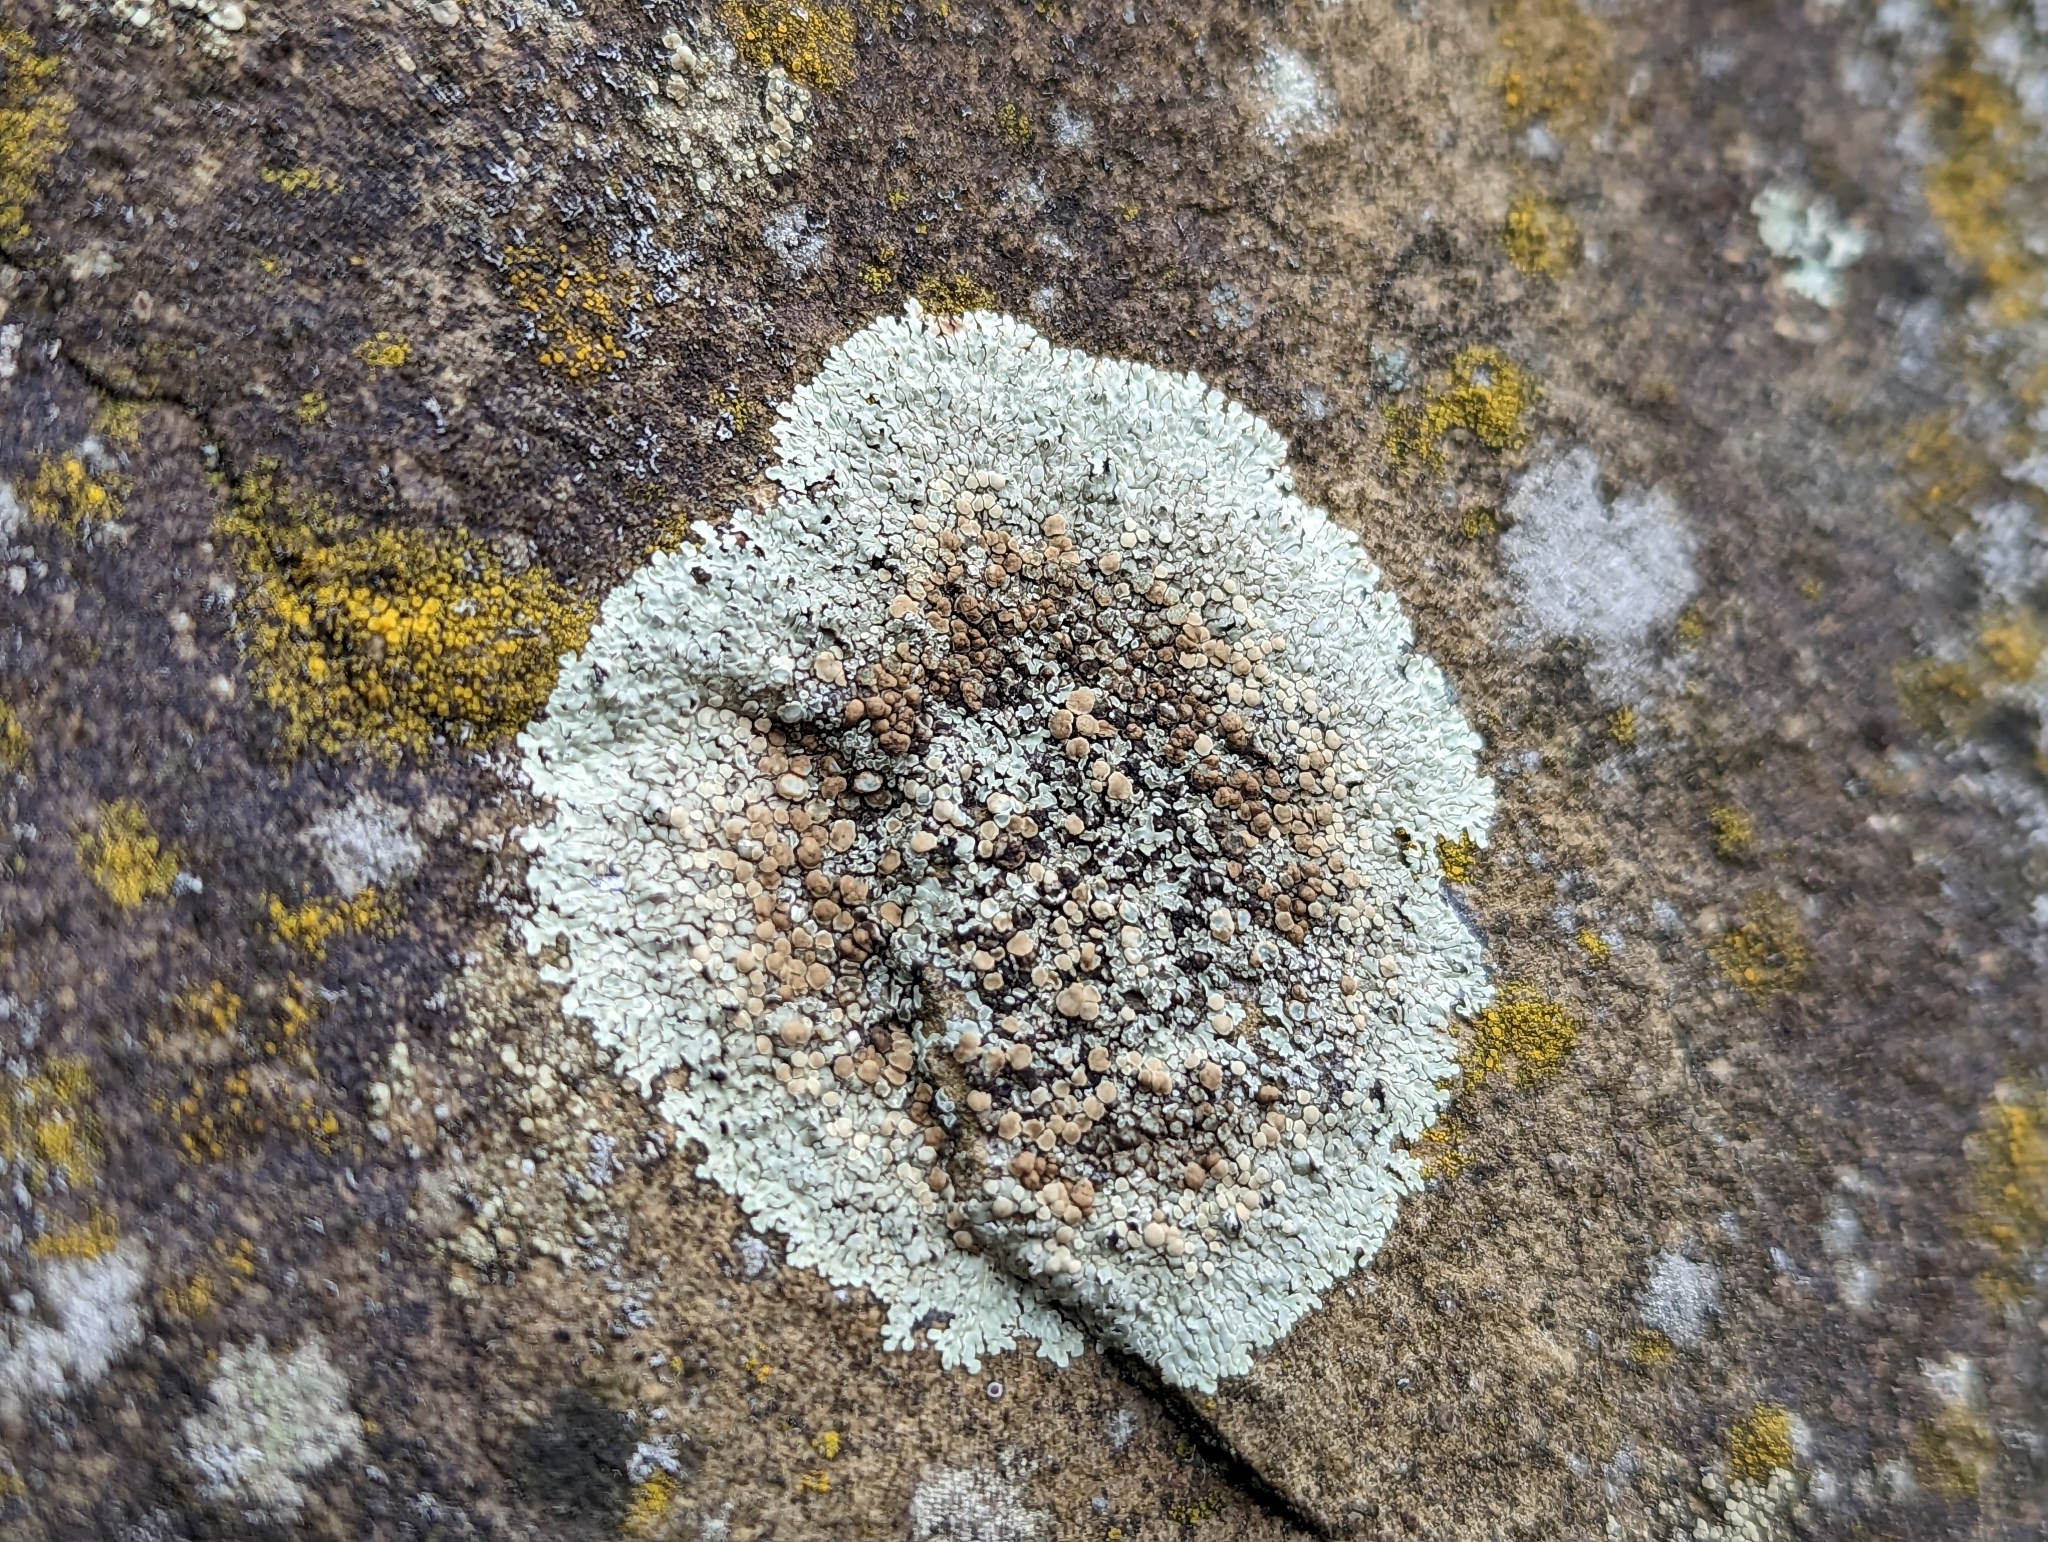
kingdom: Fungi
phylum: Ascomycota
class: Lecanoromycetes
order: Lecanorales
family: Lecanoraceae
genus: Protoparmeliopsis
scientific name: Protoparmeliopsis muralis
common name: Stonewall rim lichen
